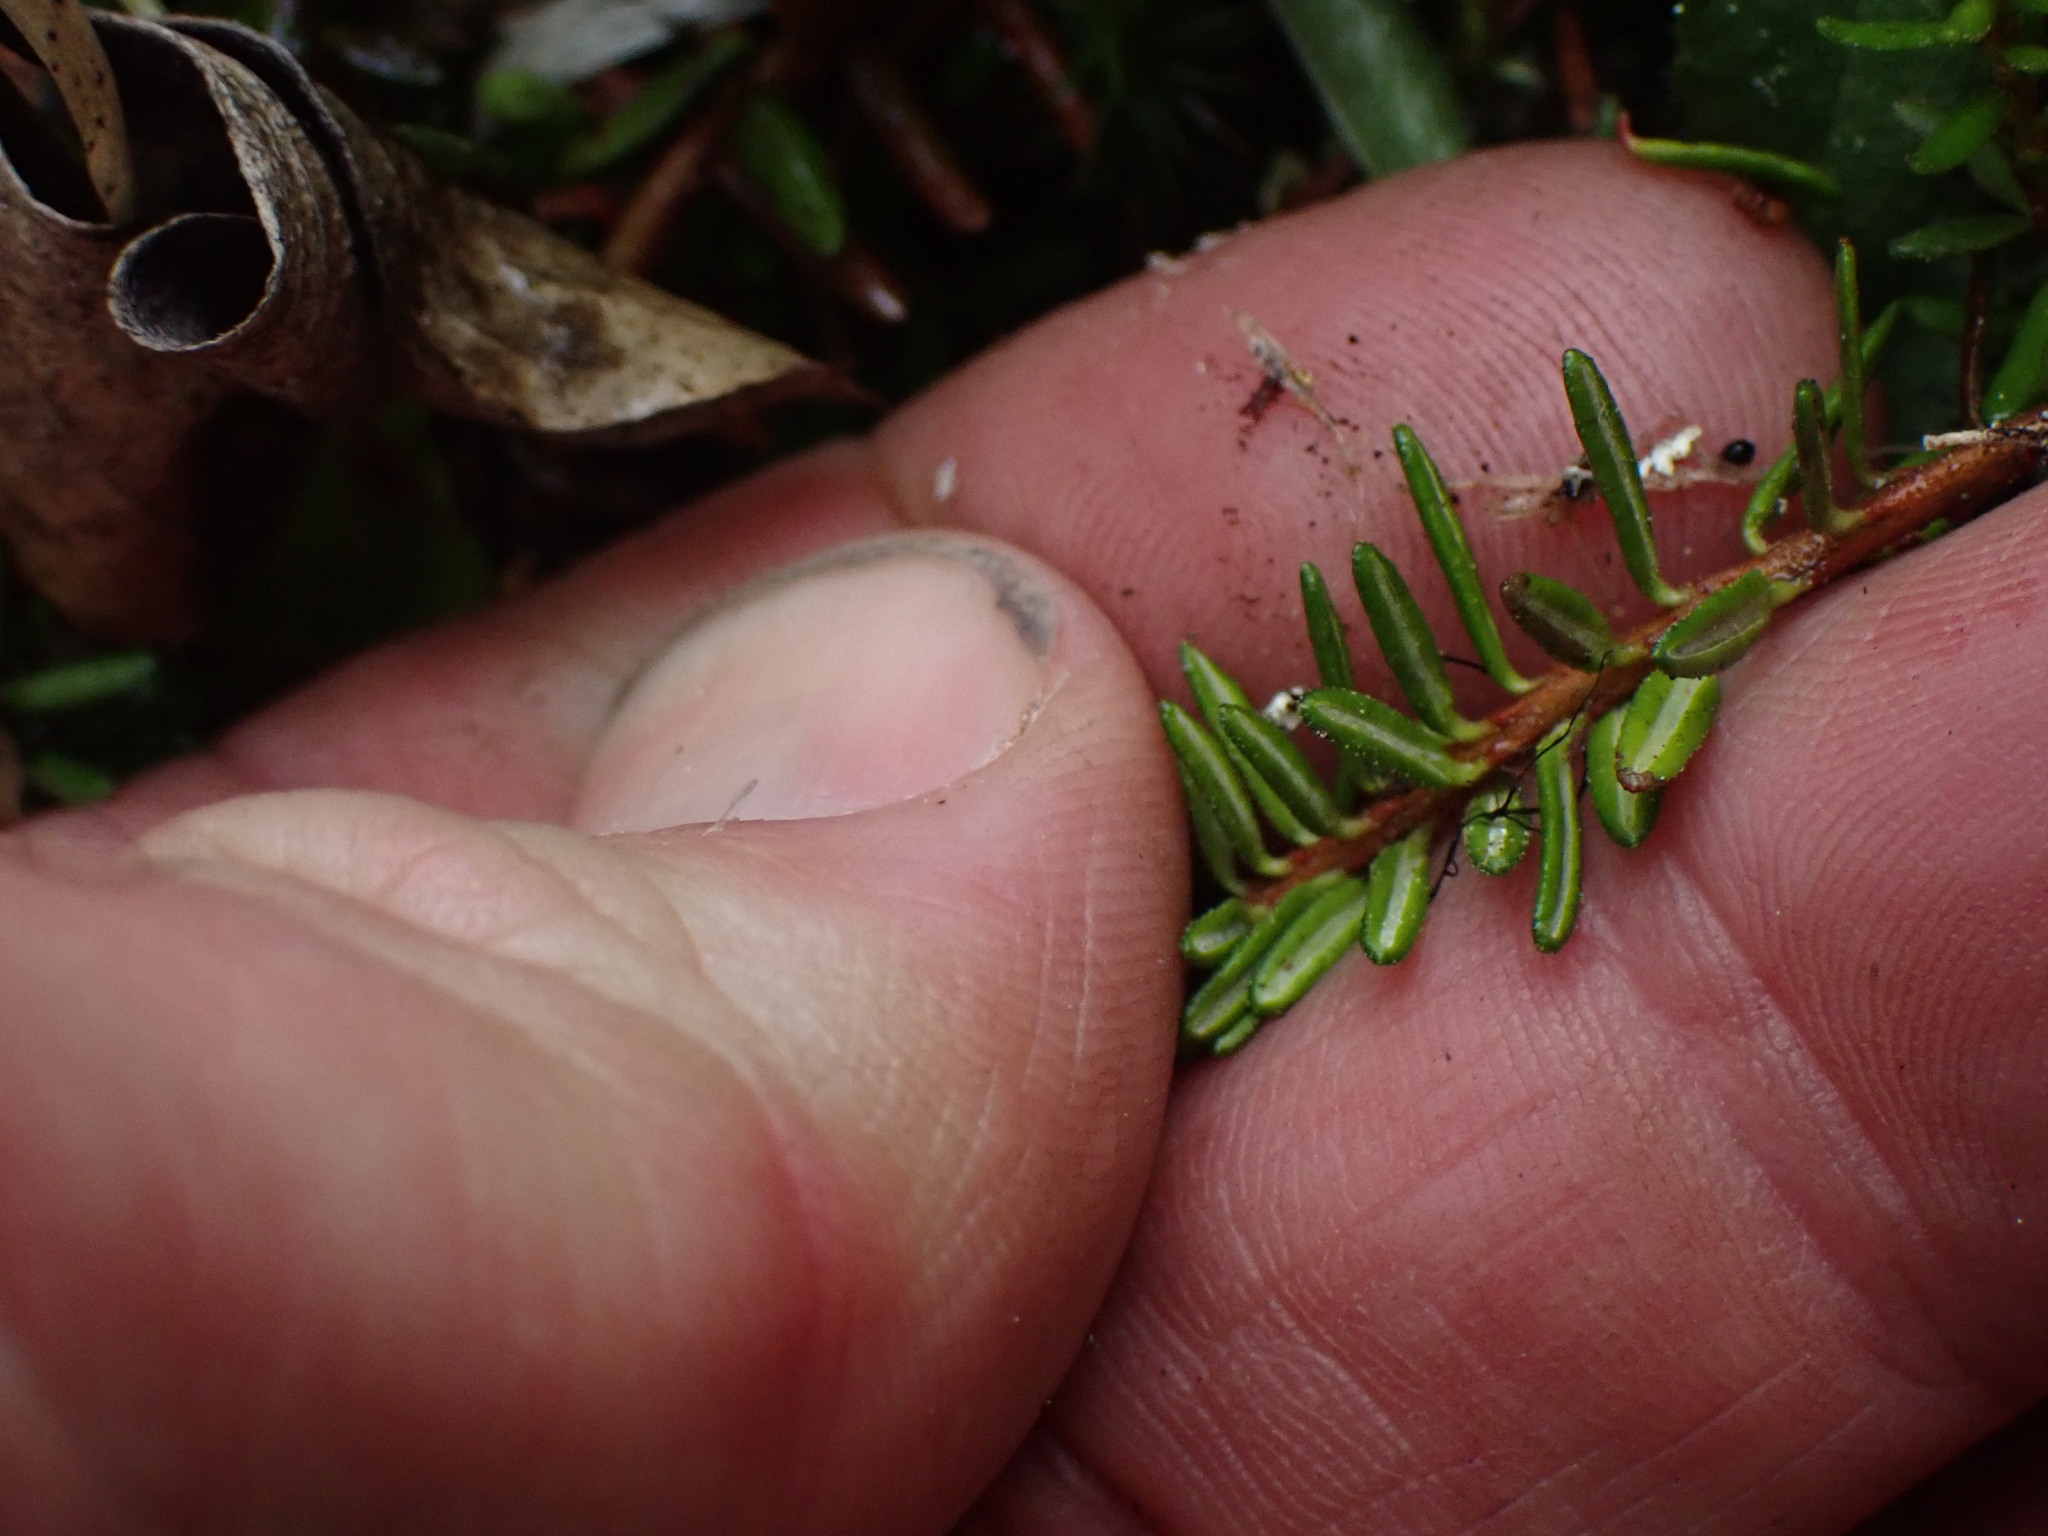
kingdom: Plantae
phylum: Tracheophyta
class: Magnoliopsida
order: Ericales
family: Ericaceae
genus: Empetrum
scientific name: Empetrum nigrum
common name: Black crowberry
